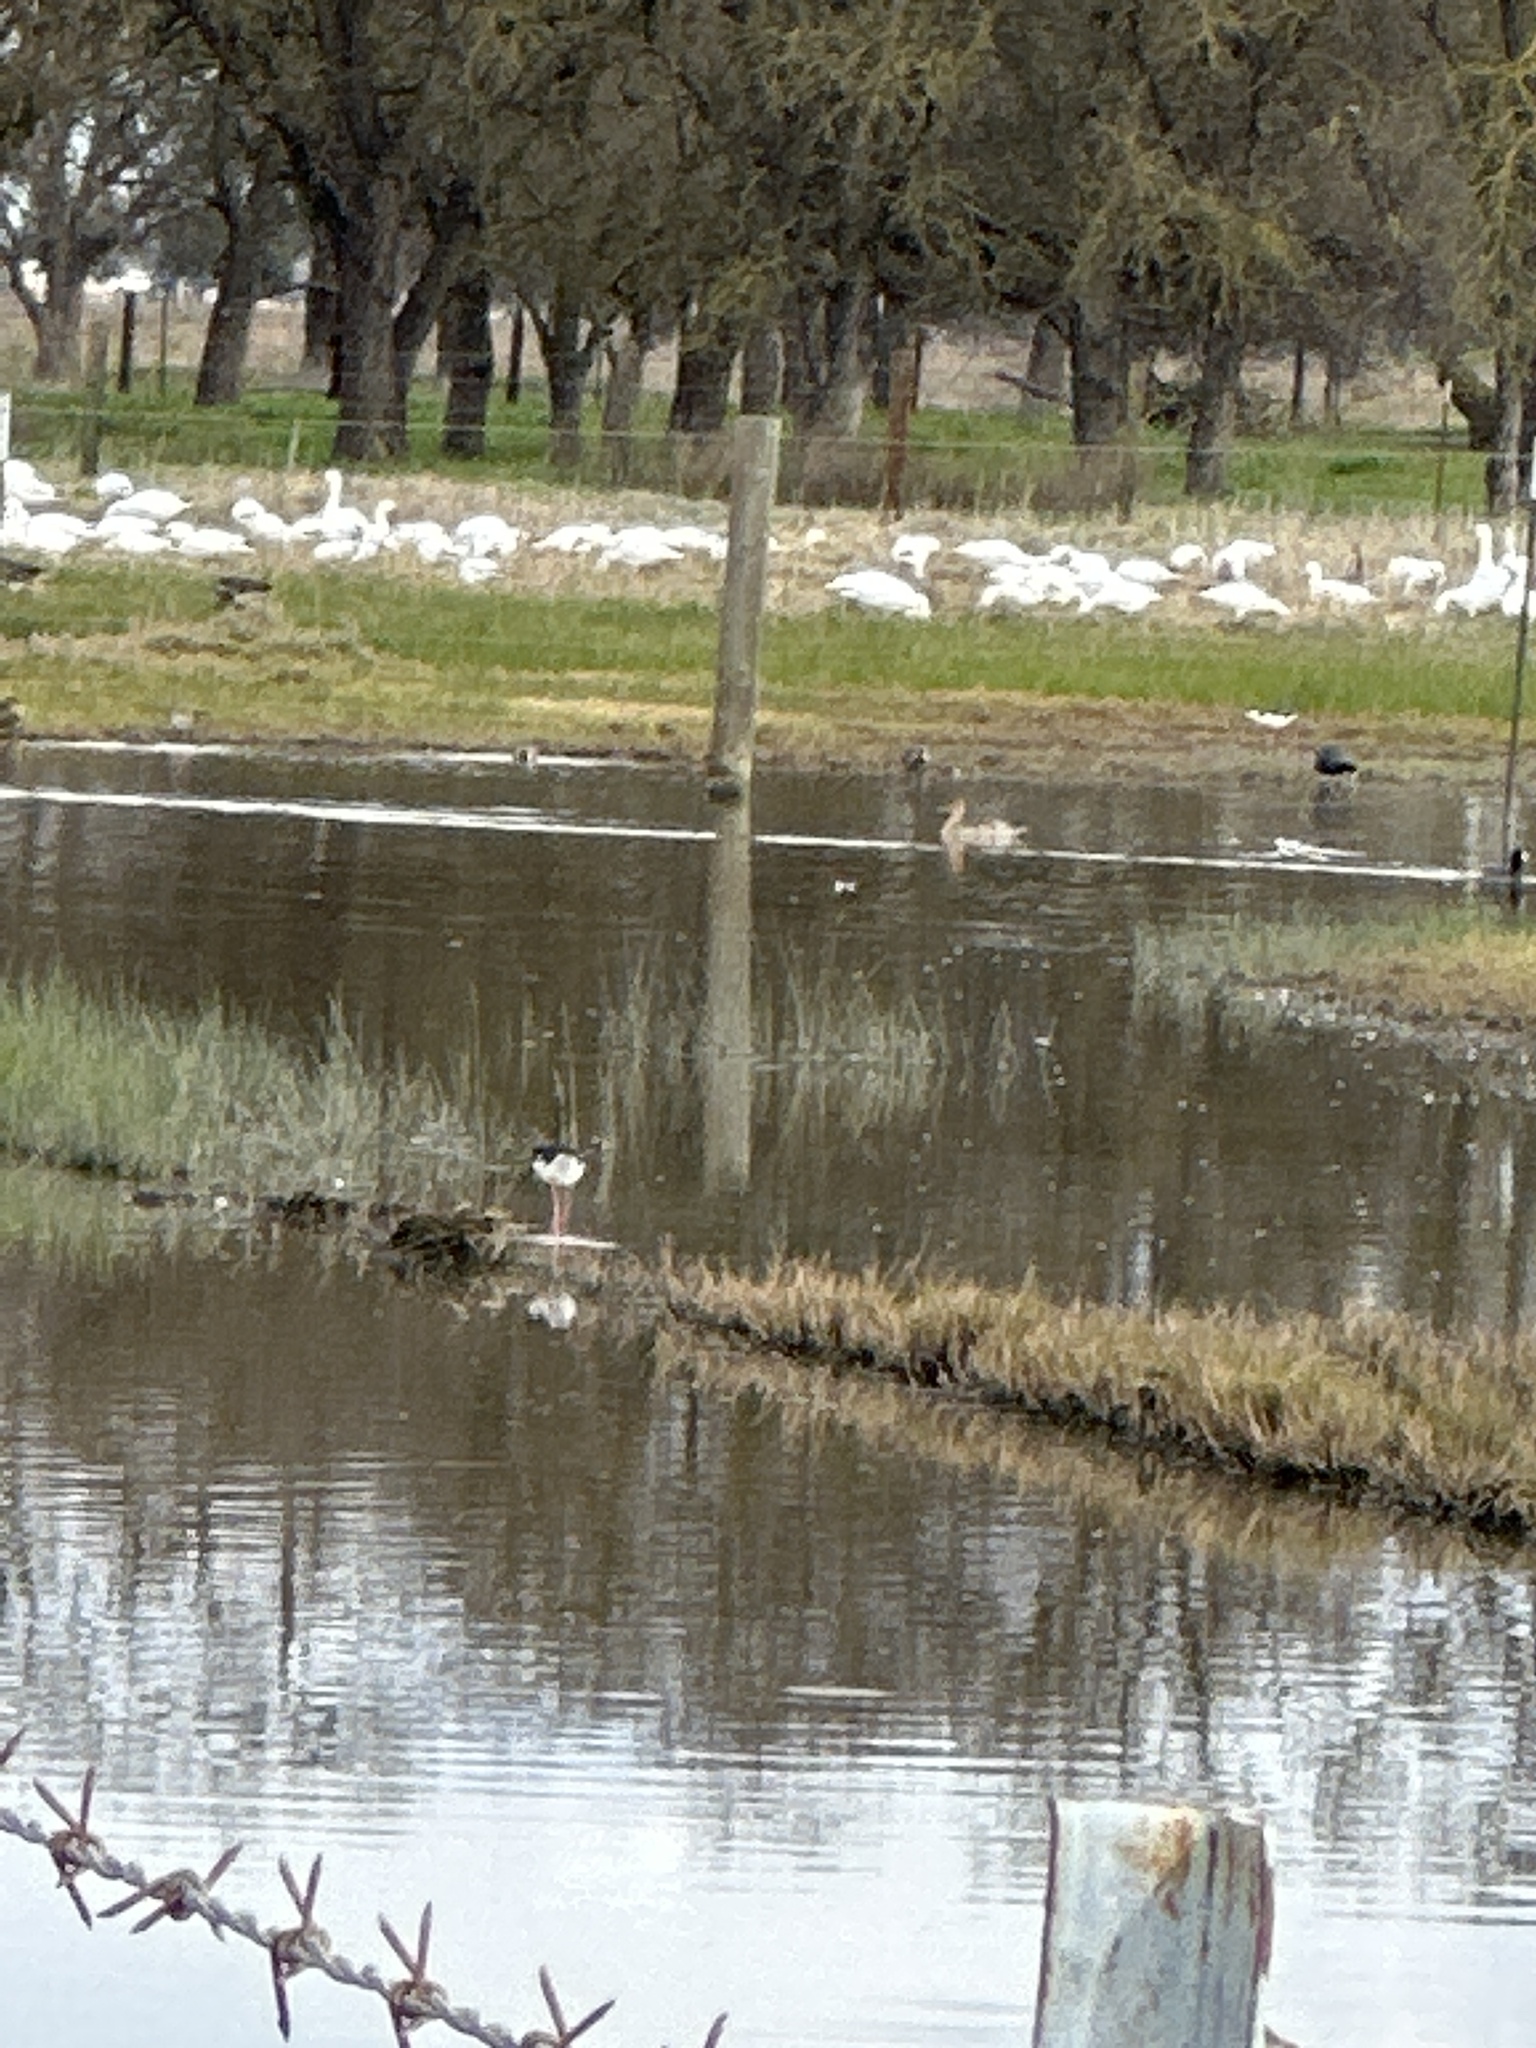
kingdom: Animalia
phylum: Chordata
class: Aves
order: Charadriiformes
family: Recurvirostridae
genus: Himantopus
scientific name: Himantopus mexicanus
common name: Black-necked stilt
